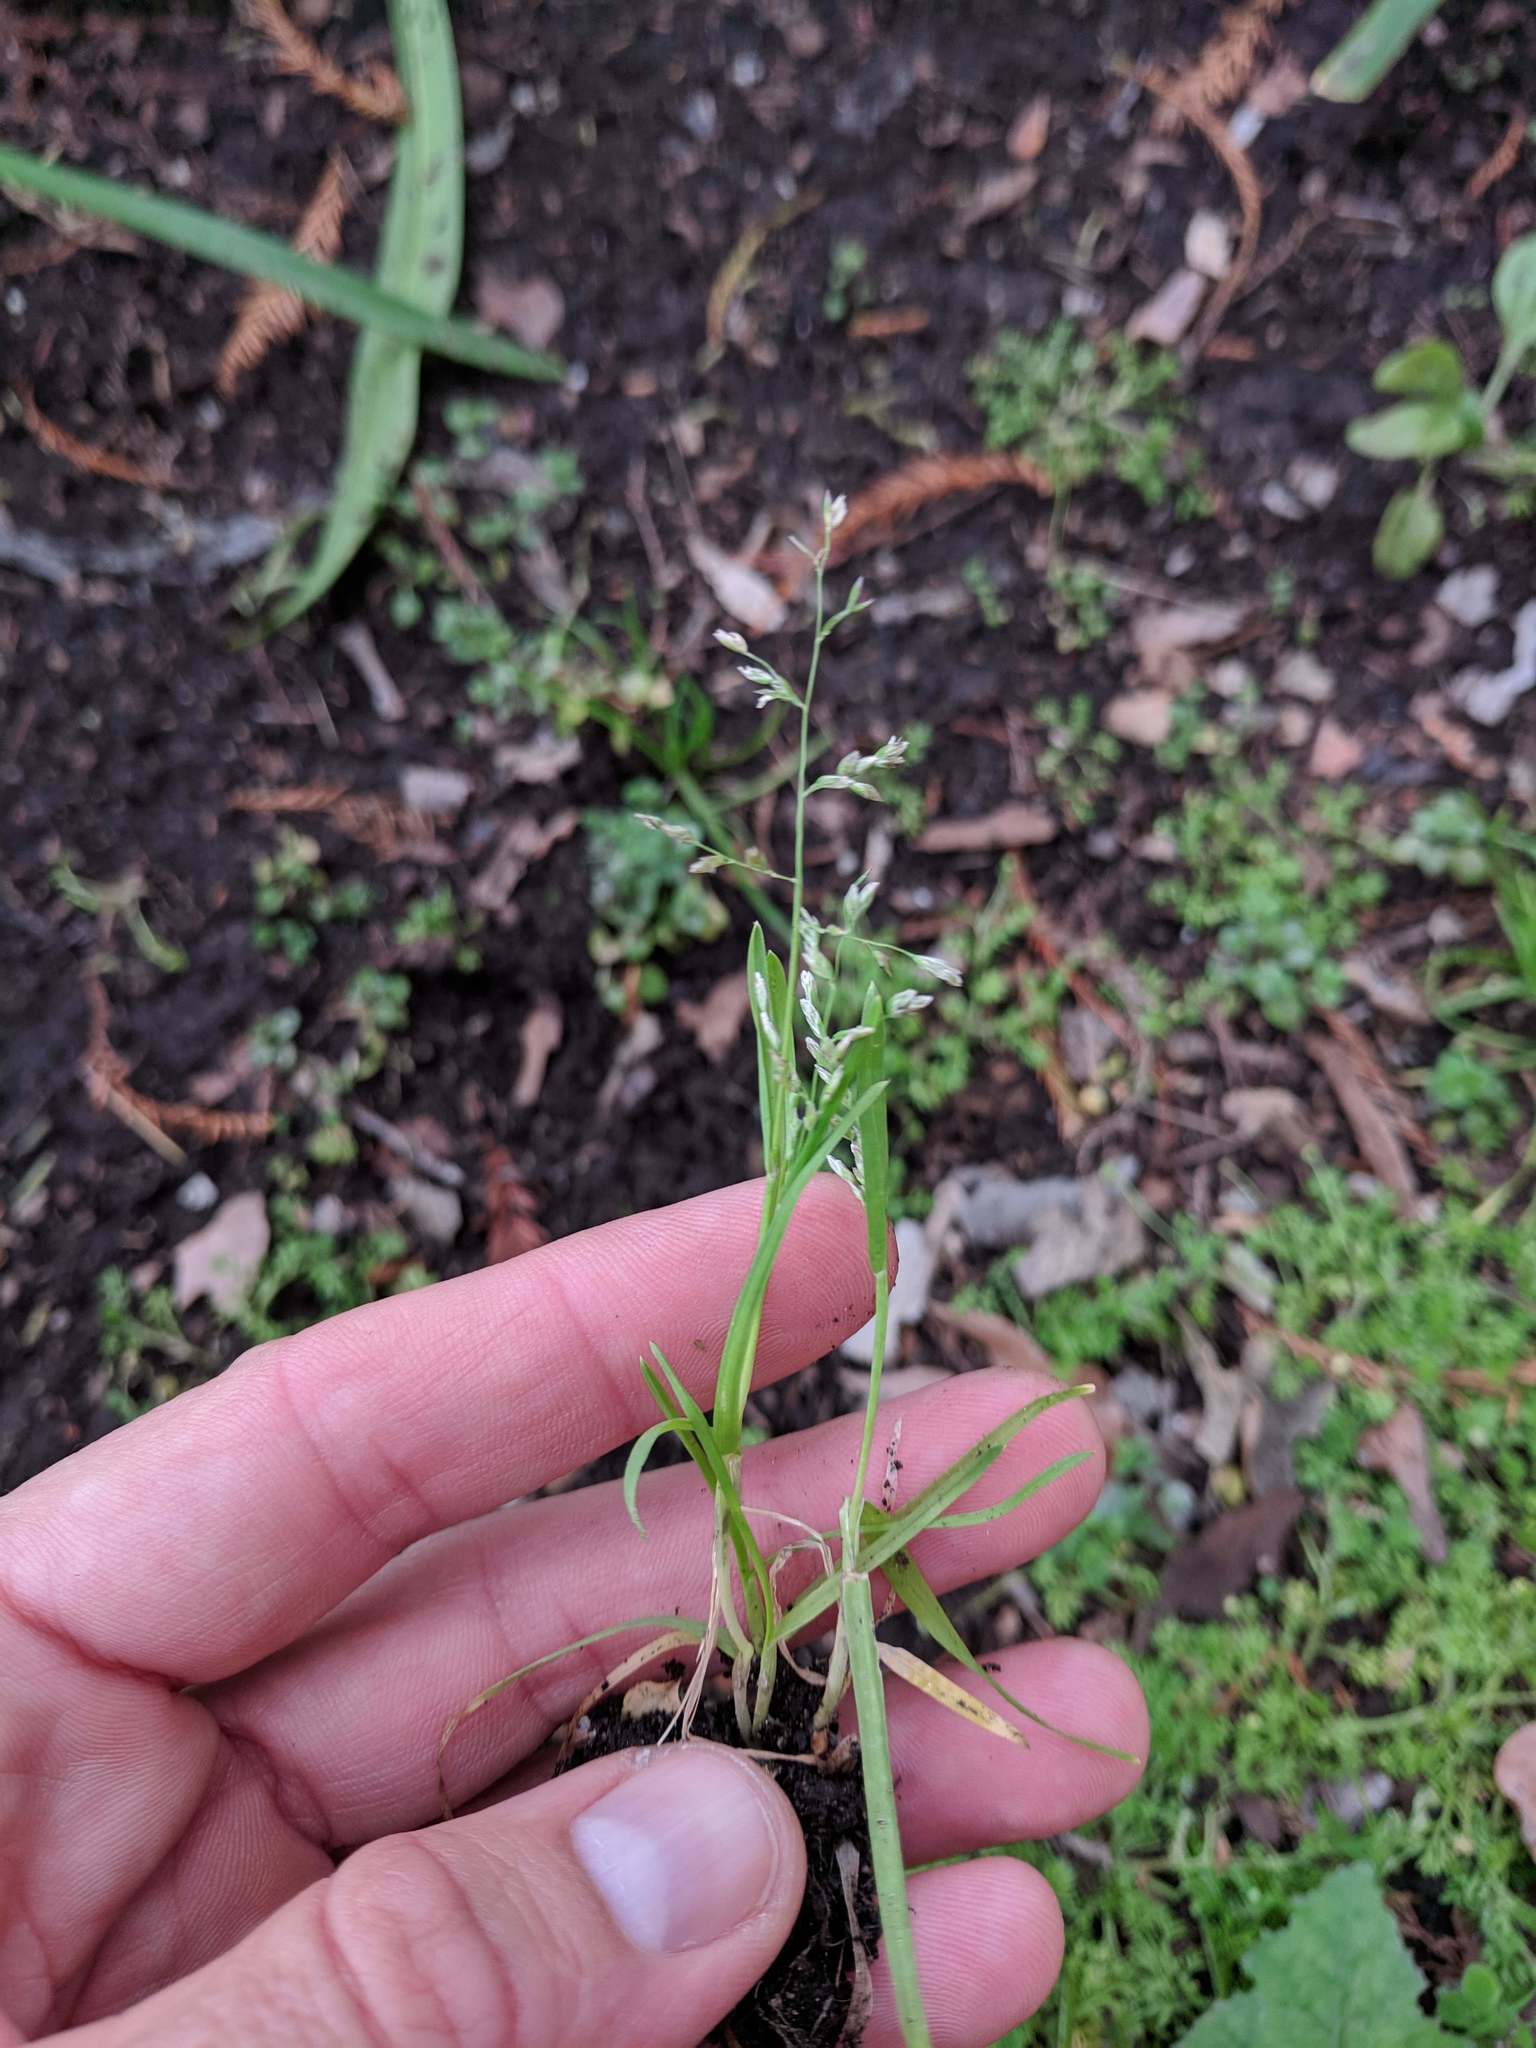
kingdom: Plantae
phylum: Tracheophyta
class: Liliopsida
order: Poales
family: Poaceae
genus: Poa
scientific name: Poa annua
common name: Annual bluegrass
